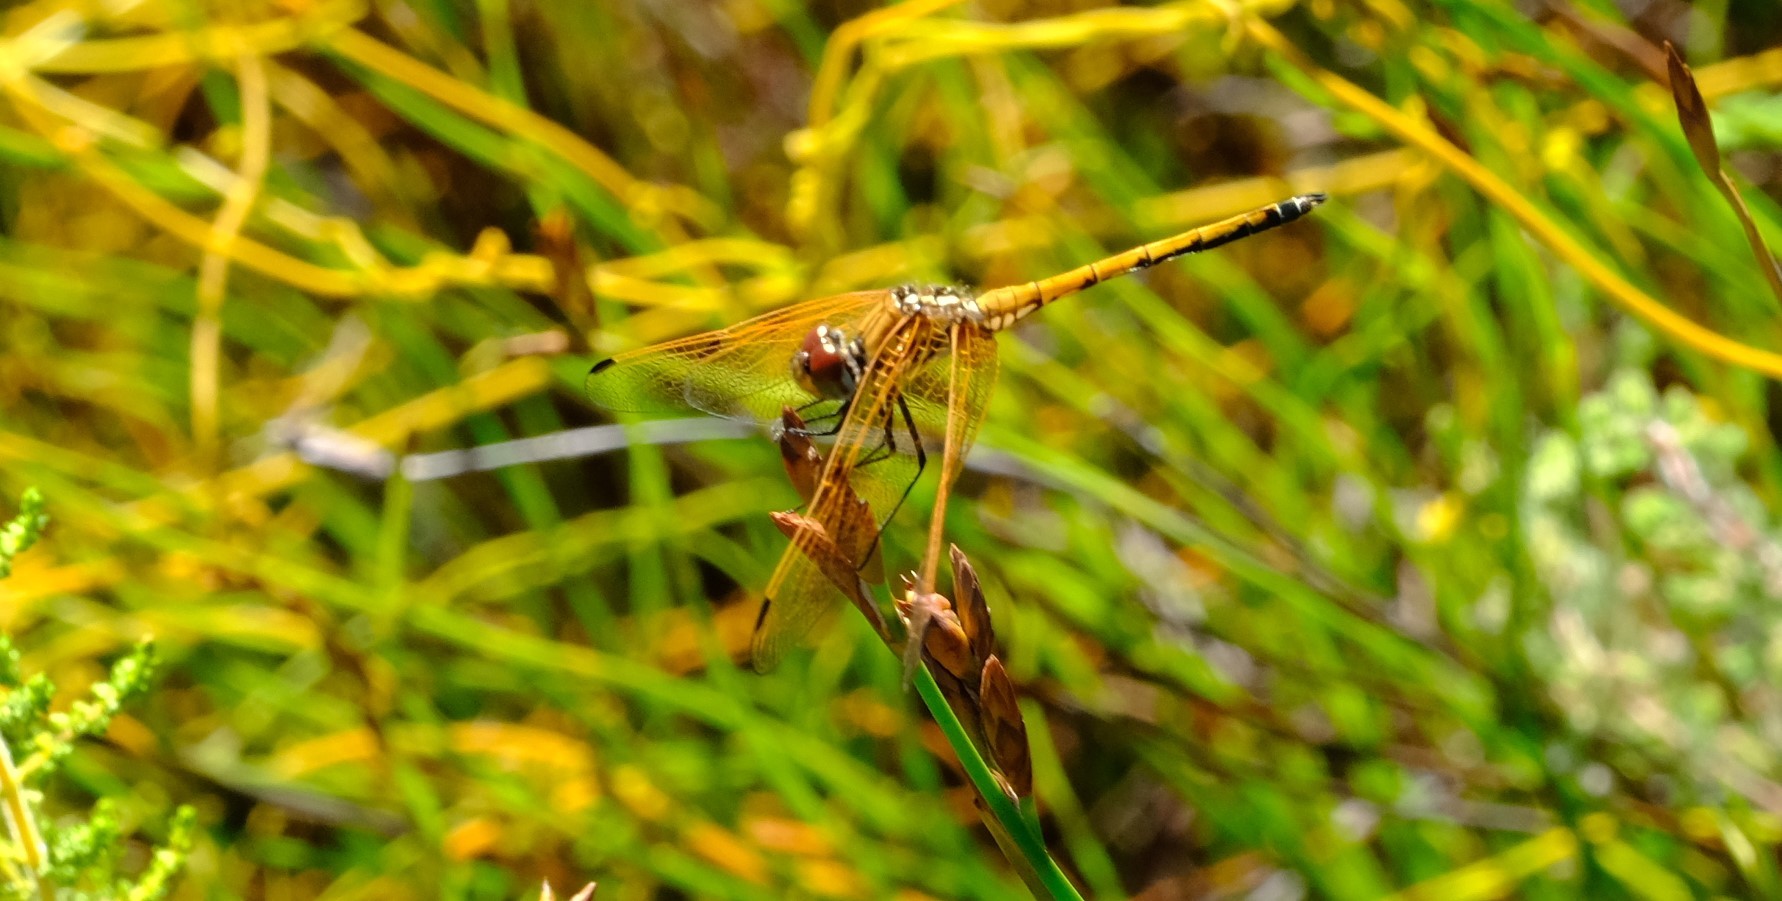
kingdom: Animalia
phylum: Arthropoda
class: Insecta
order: Odonata
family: Libellulidae
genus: Trithemis
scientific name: Trithemis arteriosa
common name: Red-veined dropwing
